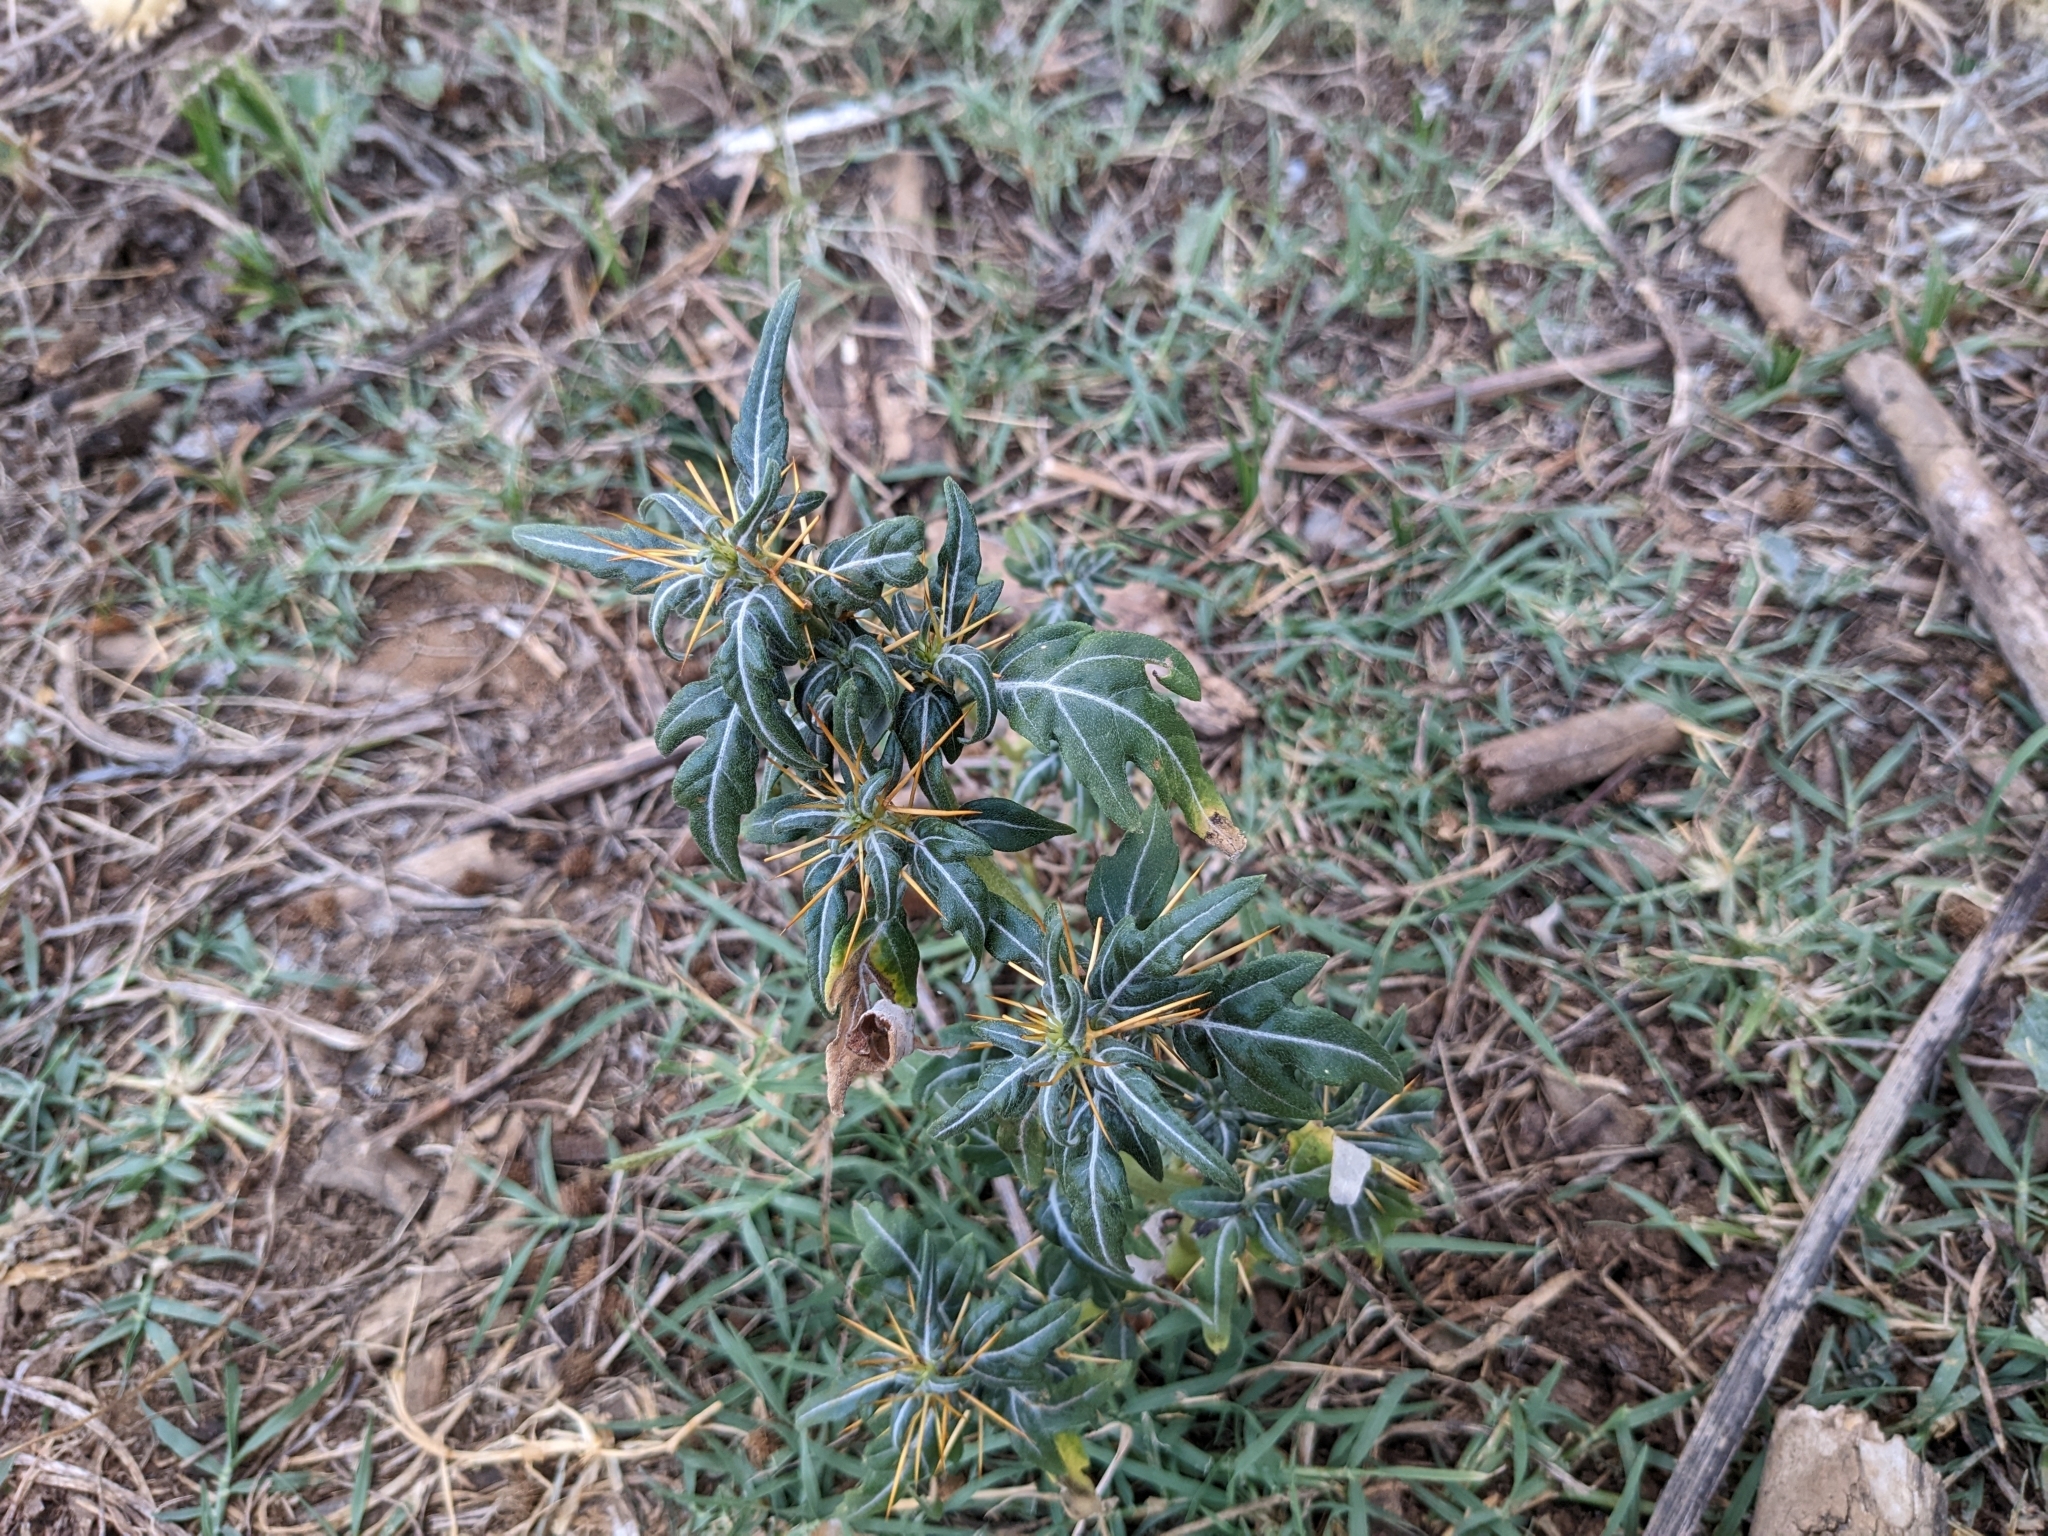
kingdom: Plantae
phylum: Tracheophyta
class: Magnoliopsida
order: Asterales
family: Asteraceae
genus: Xanthium
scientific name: Xanthium spinosum
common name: Spiny cocklebur
